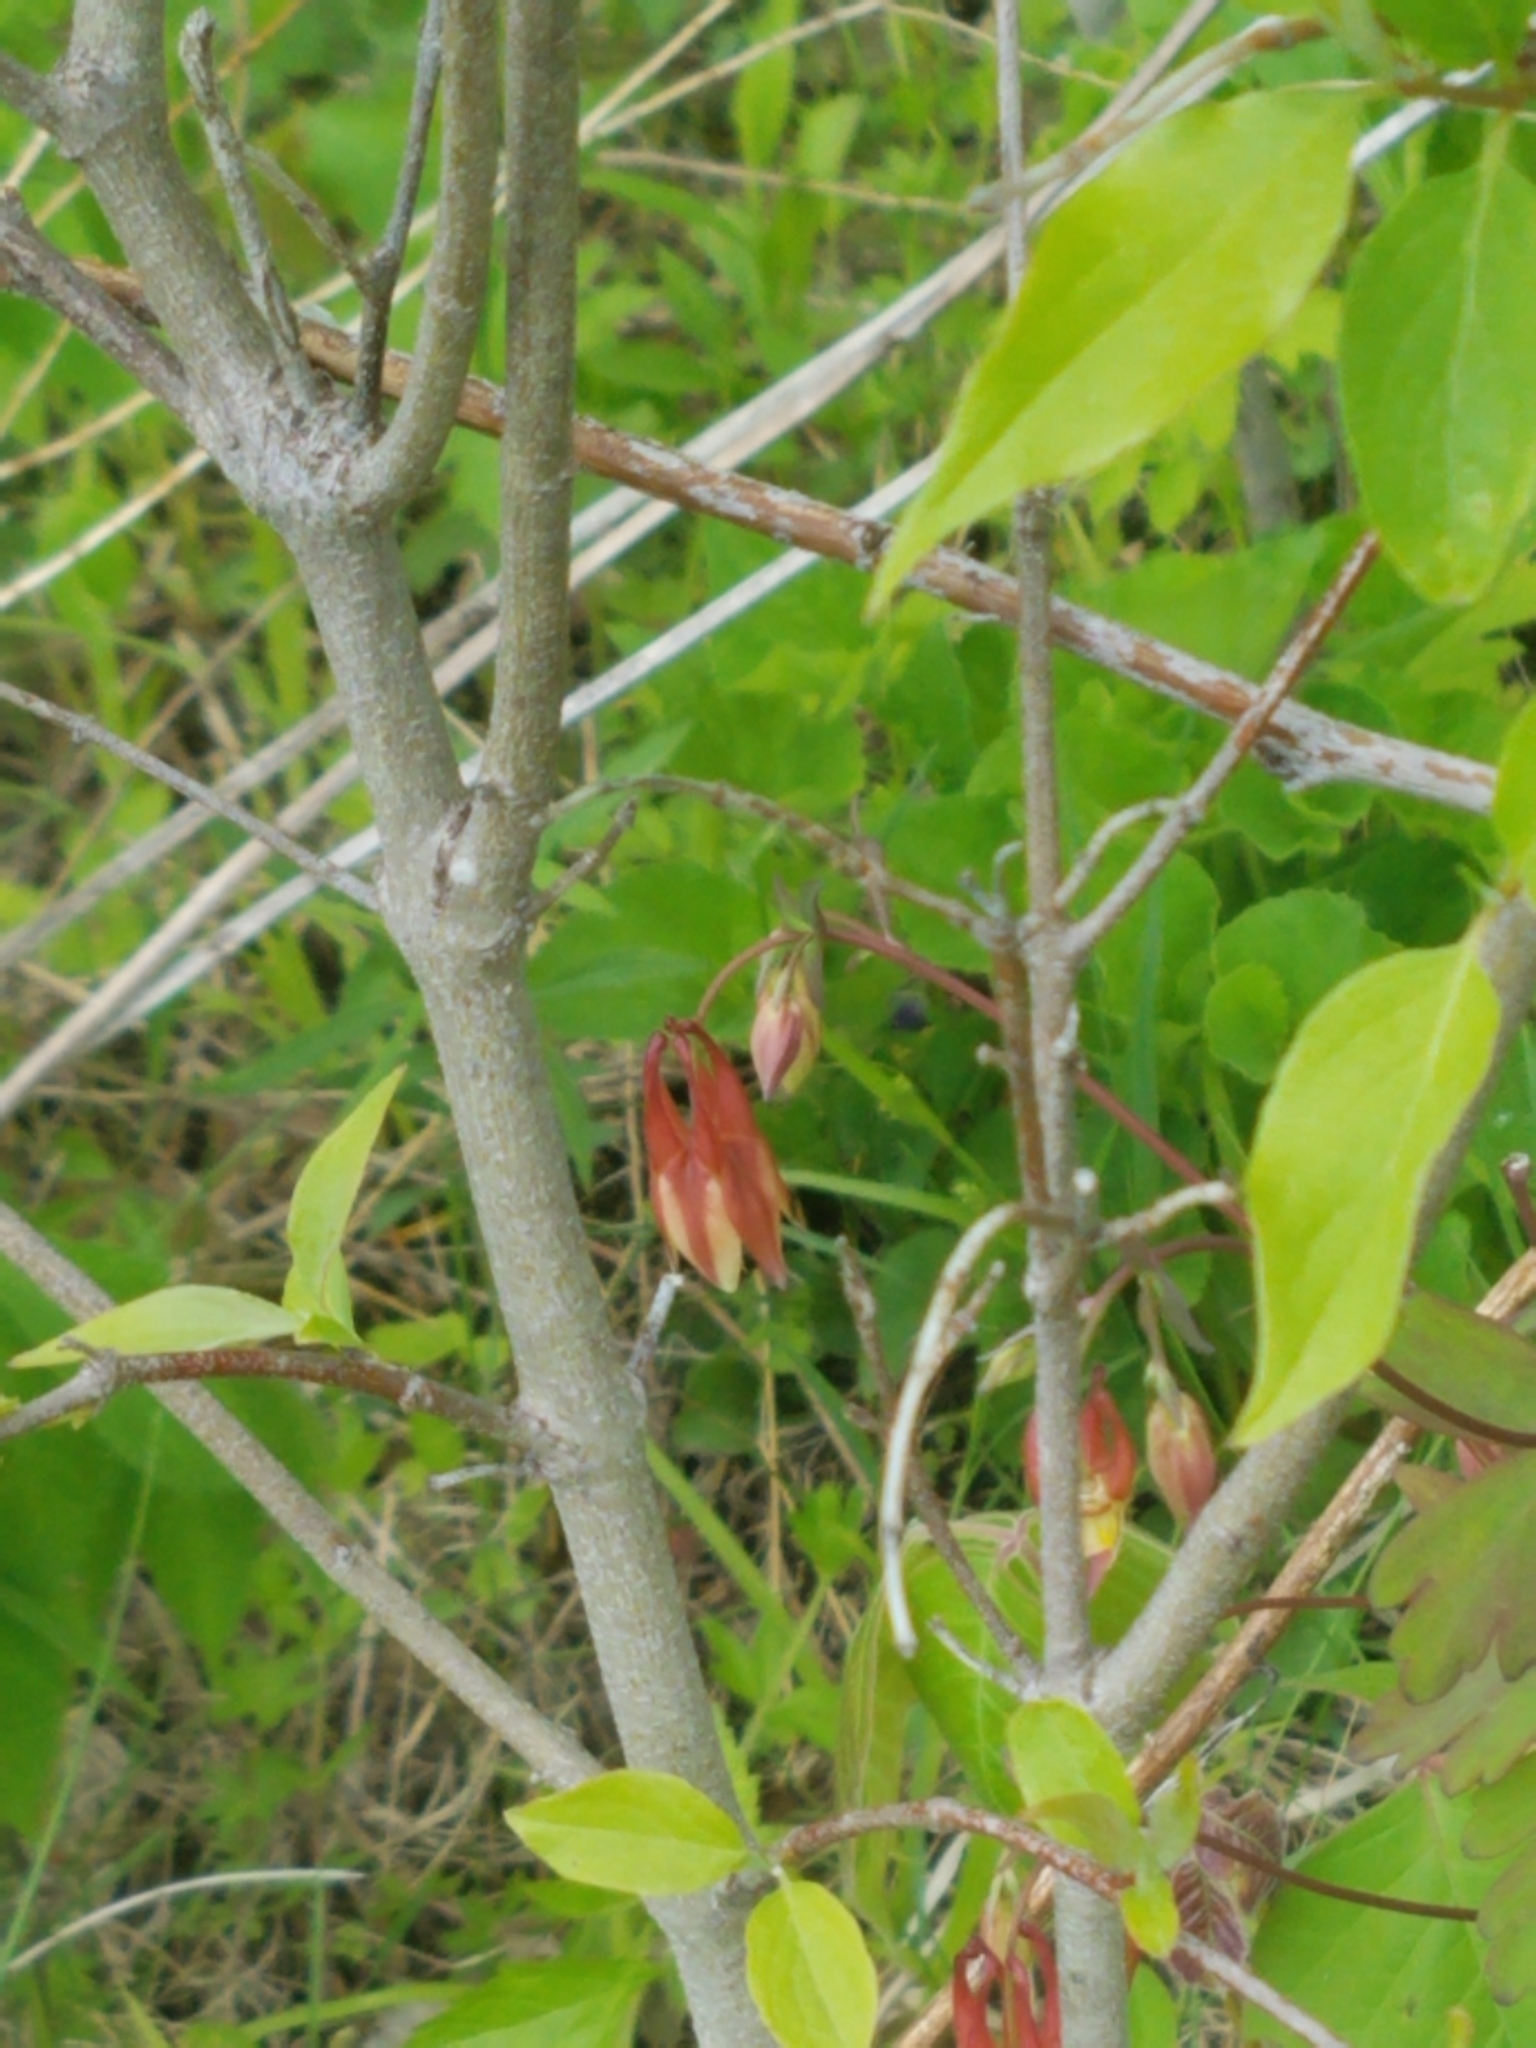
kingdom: Plantae
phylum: Tracheophyta
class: Magnoliopsida
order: Ranunculales
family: Ranunculaceae
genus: Aquilegia
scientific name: Aquilegia canadensis
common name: American columbine
